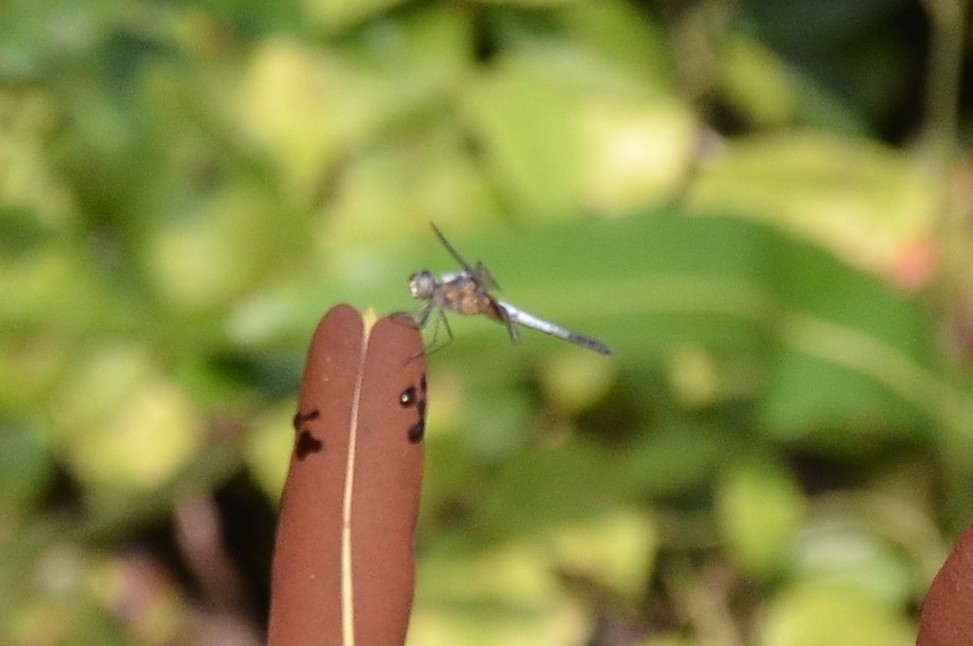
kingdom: Animalia
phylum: Arthropoda
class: Insecta
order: Odonata
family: Libellulidae
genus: Brachydiplax
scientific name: Brachydiplax chalybea
